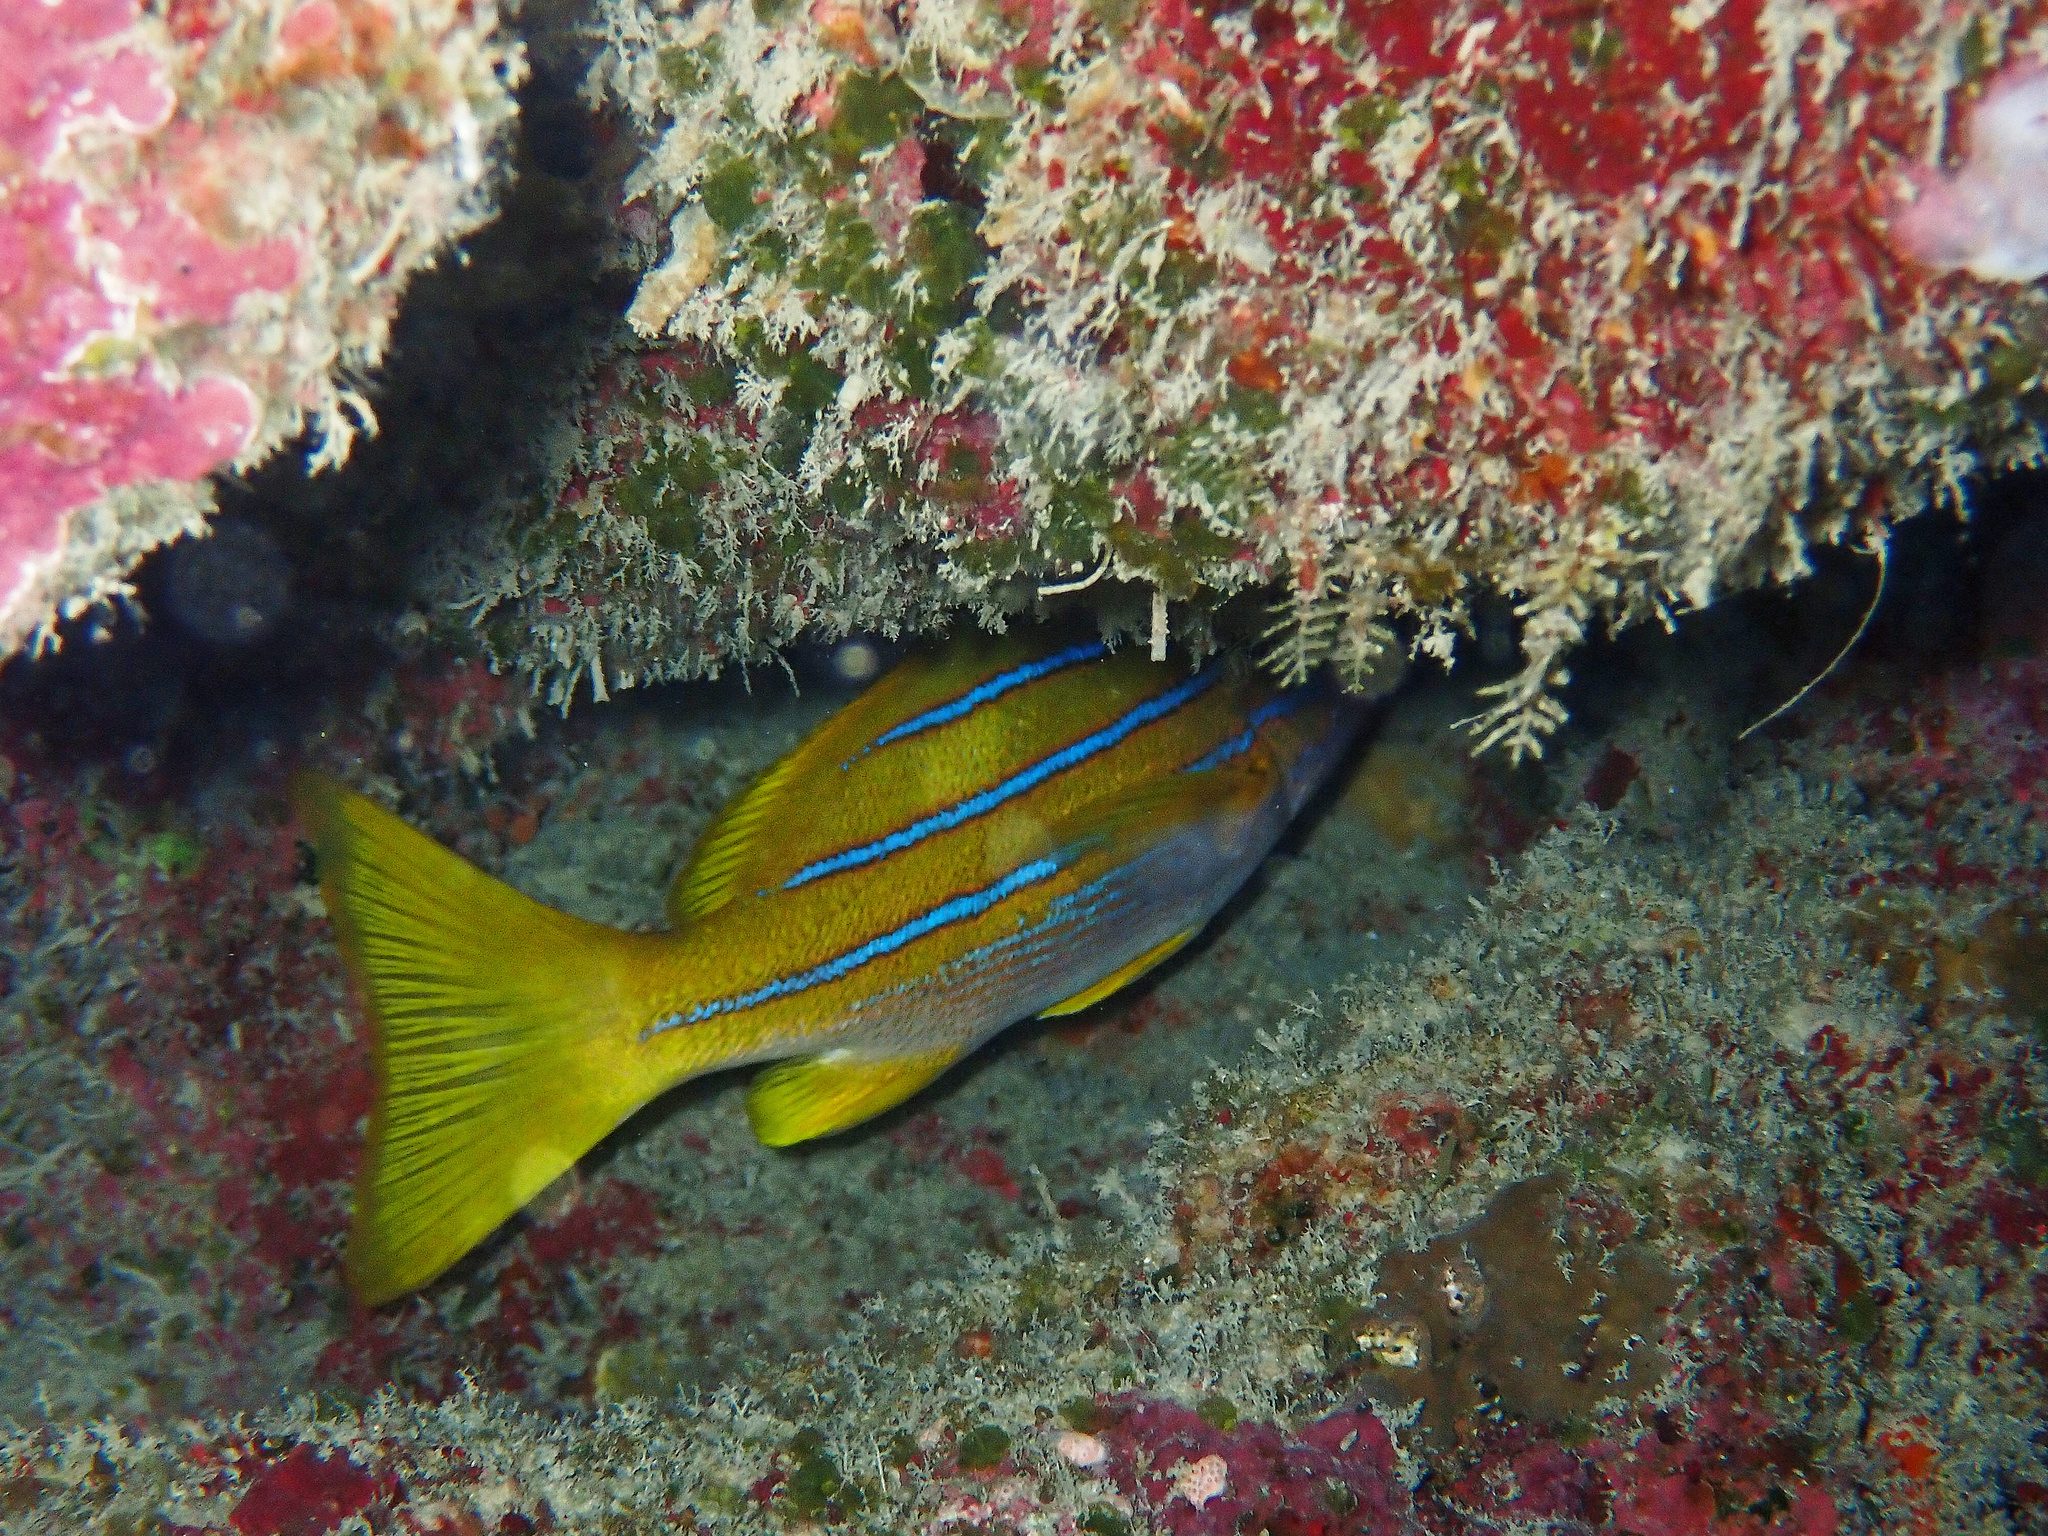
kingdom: Animalia
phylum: Chordata
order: Perciformes
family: Lutjanidae
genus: Lutjanus
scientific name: Lutjanus kasmira
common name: Common bluestripe snapper
